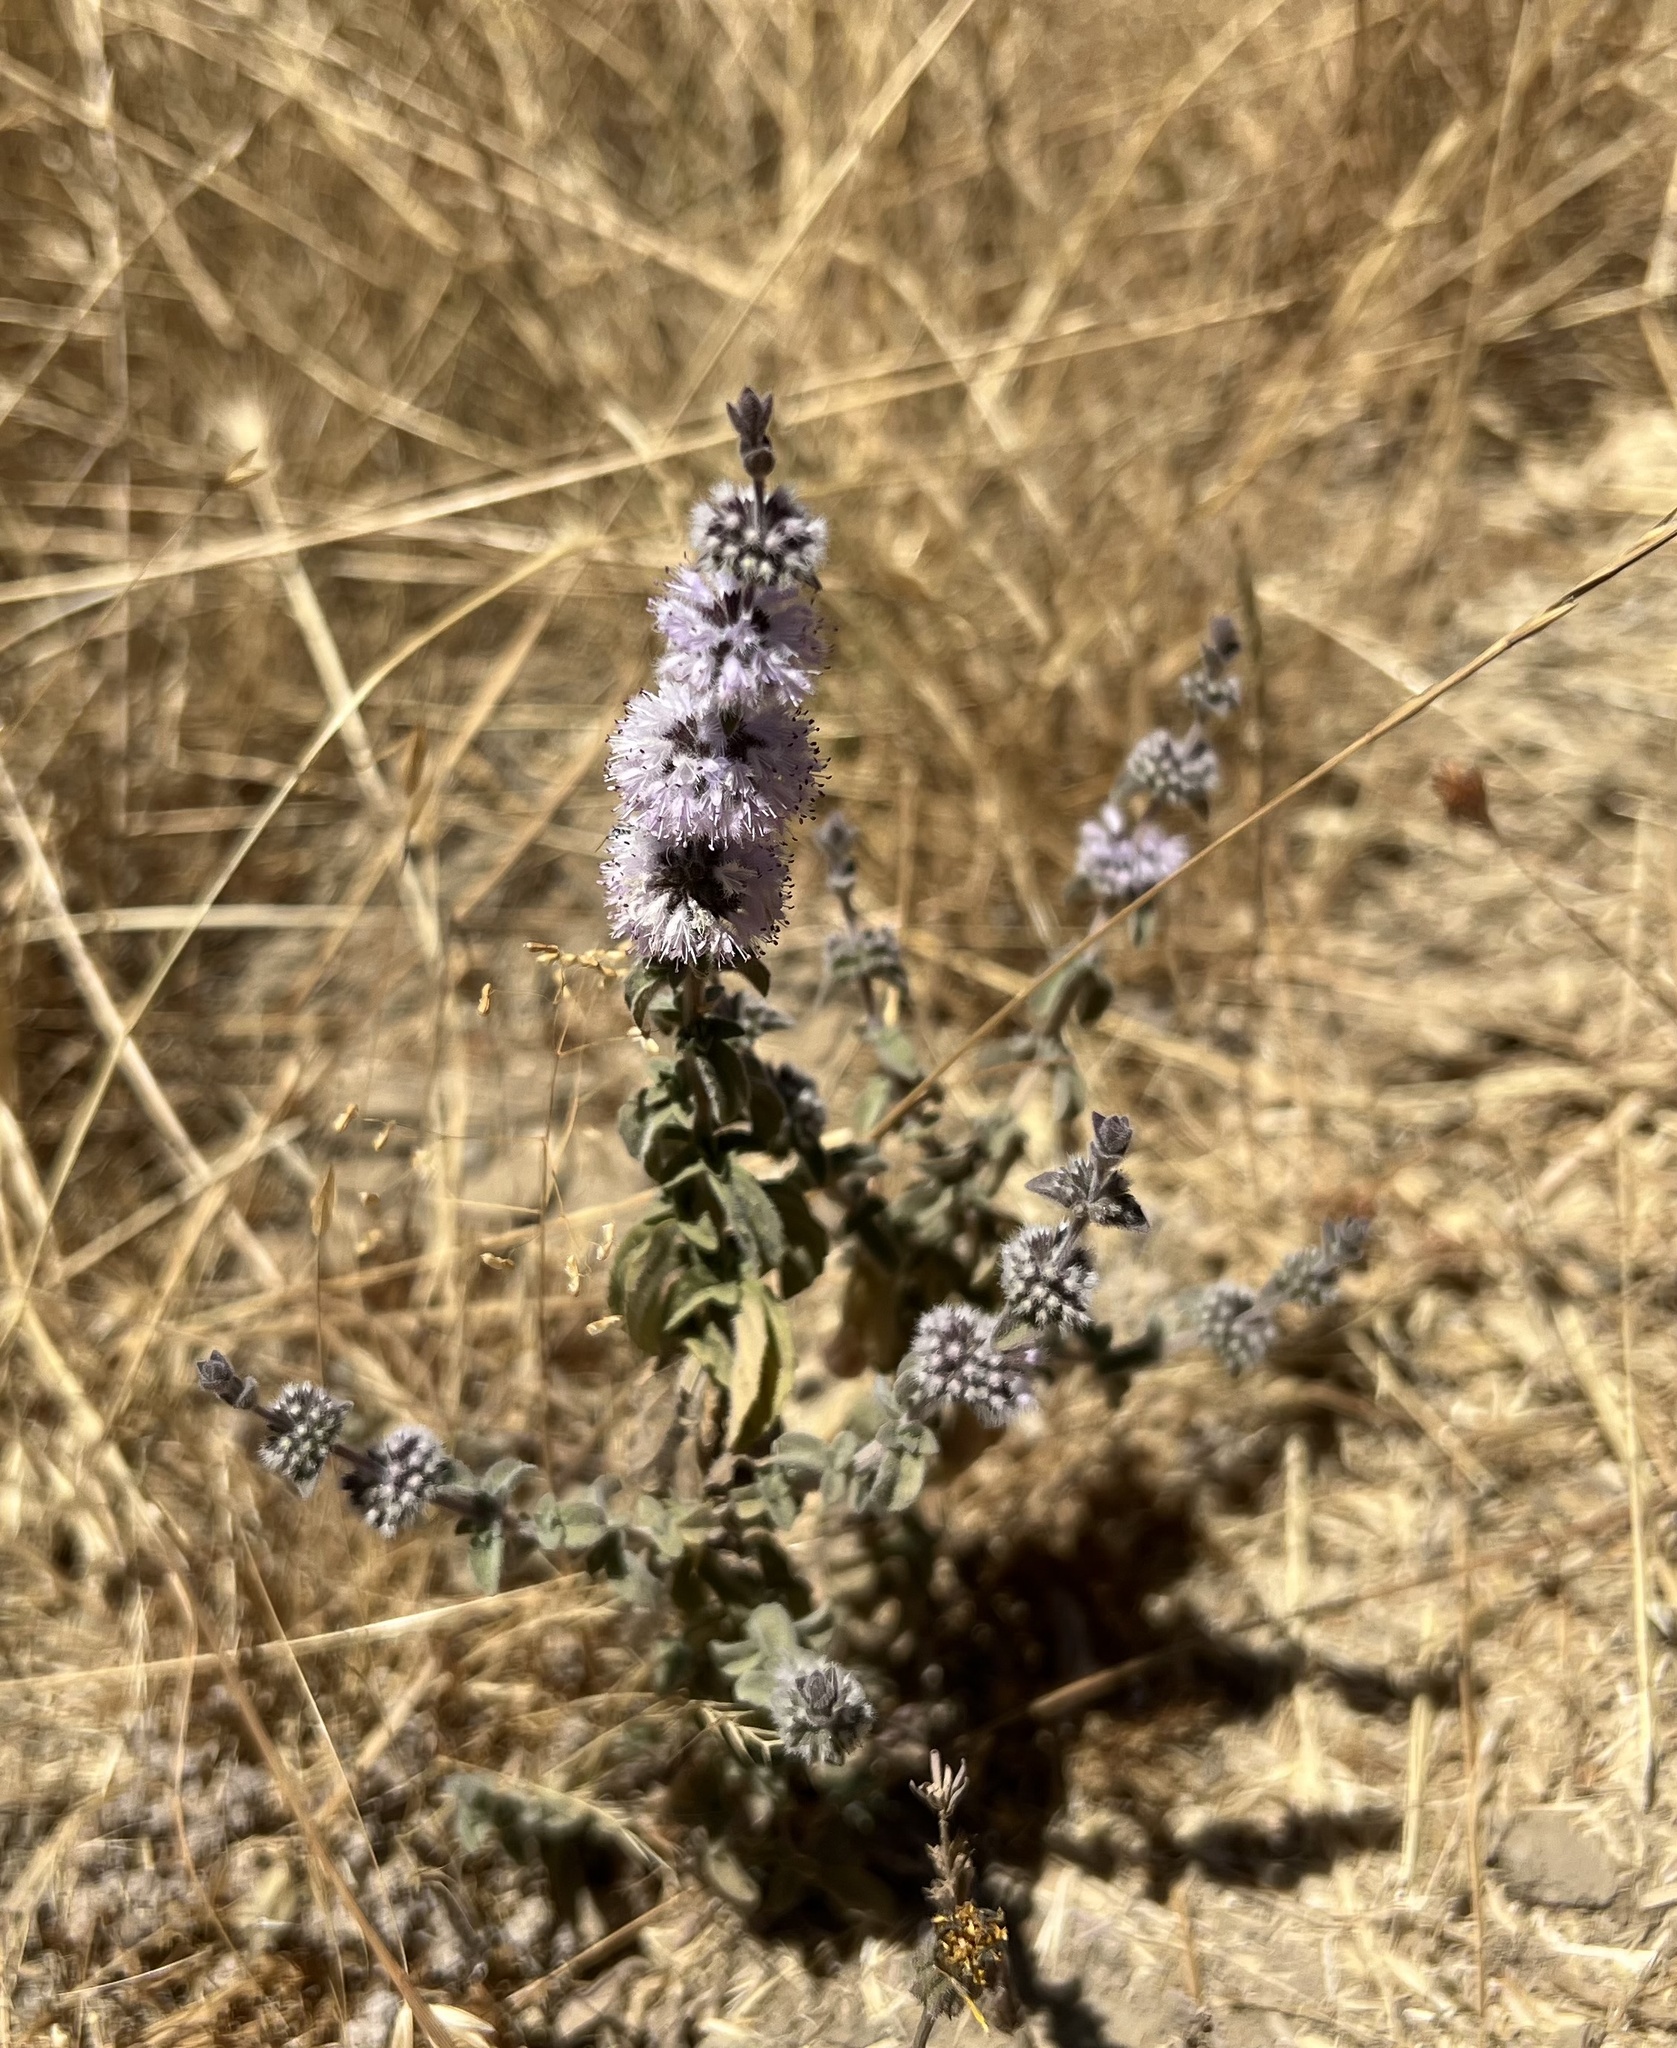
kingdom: Plantae
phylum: Tracheophyta
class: Magnoliopsida
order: Lamiales
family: Lamiaceae
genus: Mentha
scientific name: Mentha pulegium
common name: Pennyroyal
